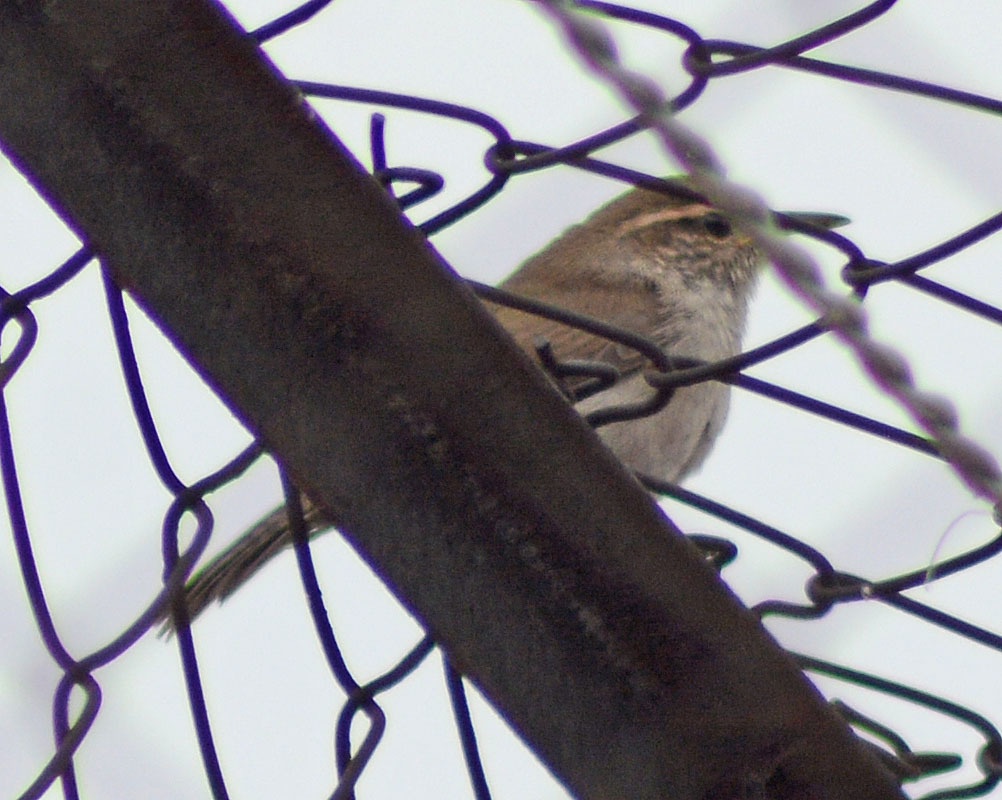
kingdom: Animalia
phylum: Chordata
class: Aves
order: Passeriformes
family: Troglodytidae
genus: Thryomanes
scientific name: Thryomanes bewickii
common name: Bewick's wren
